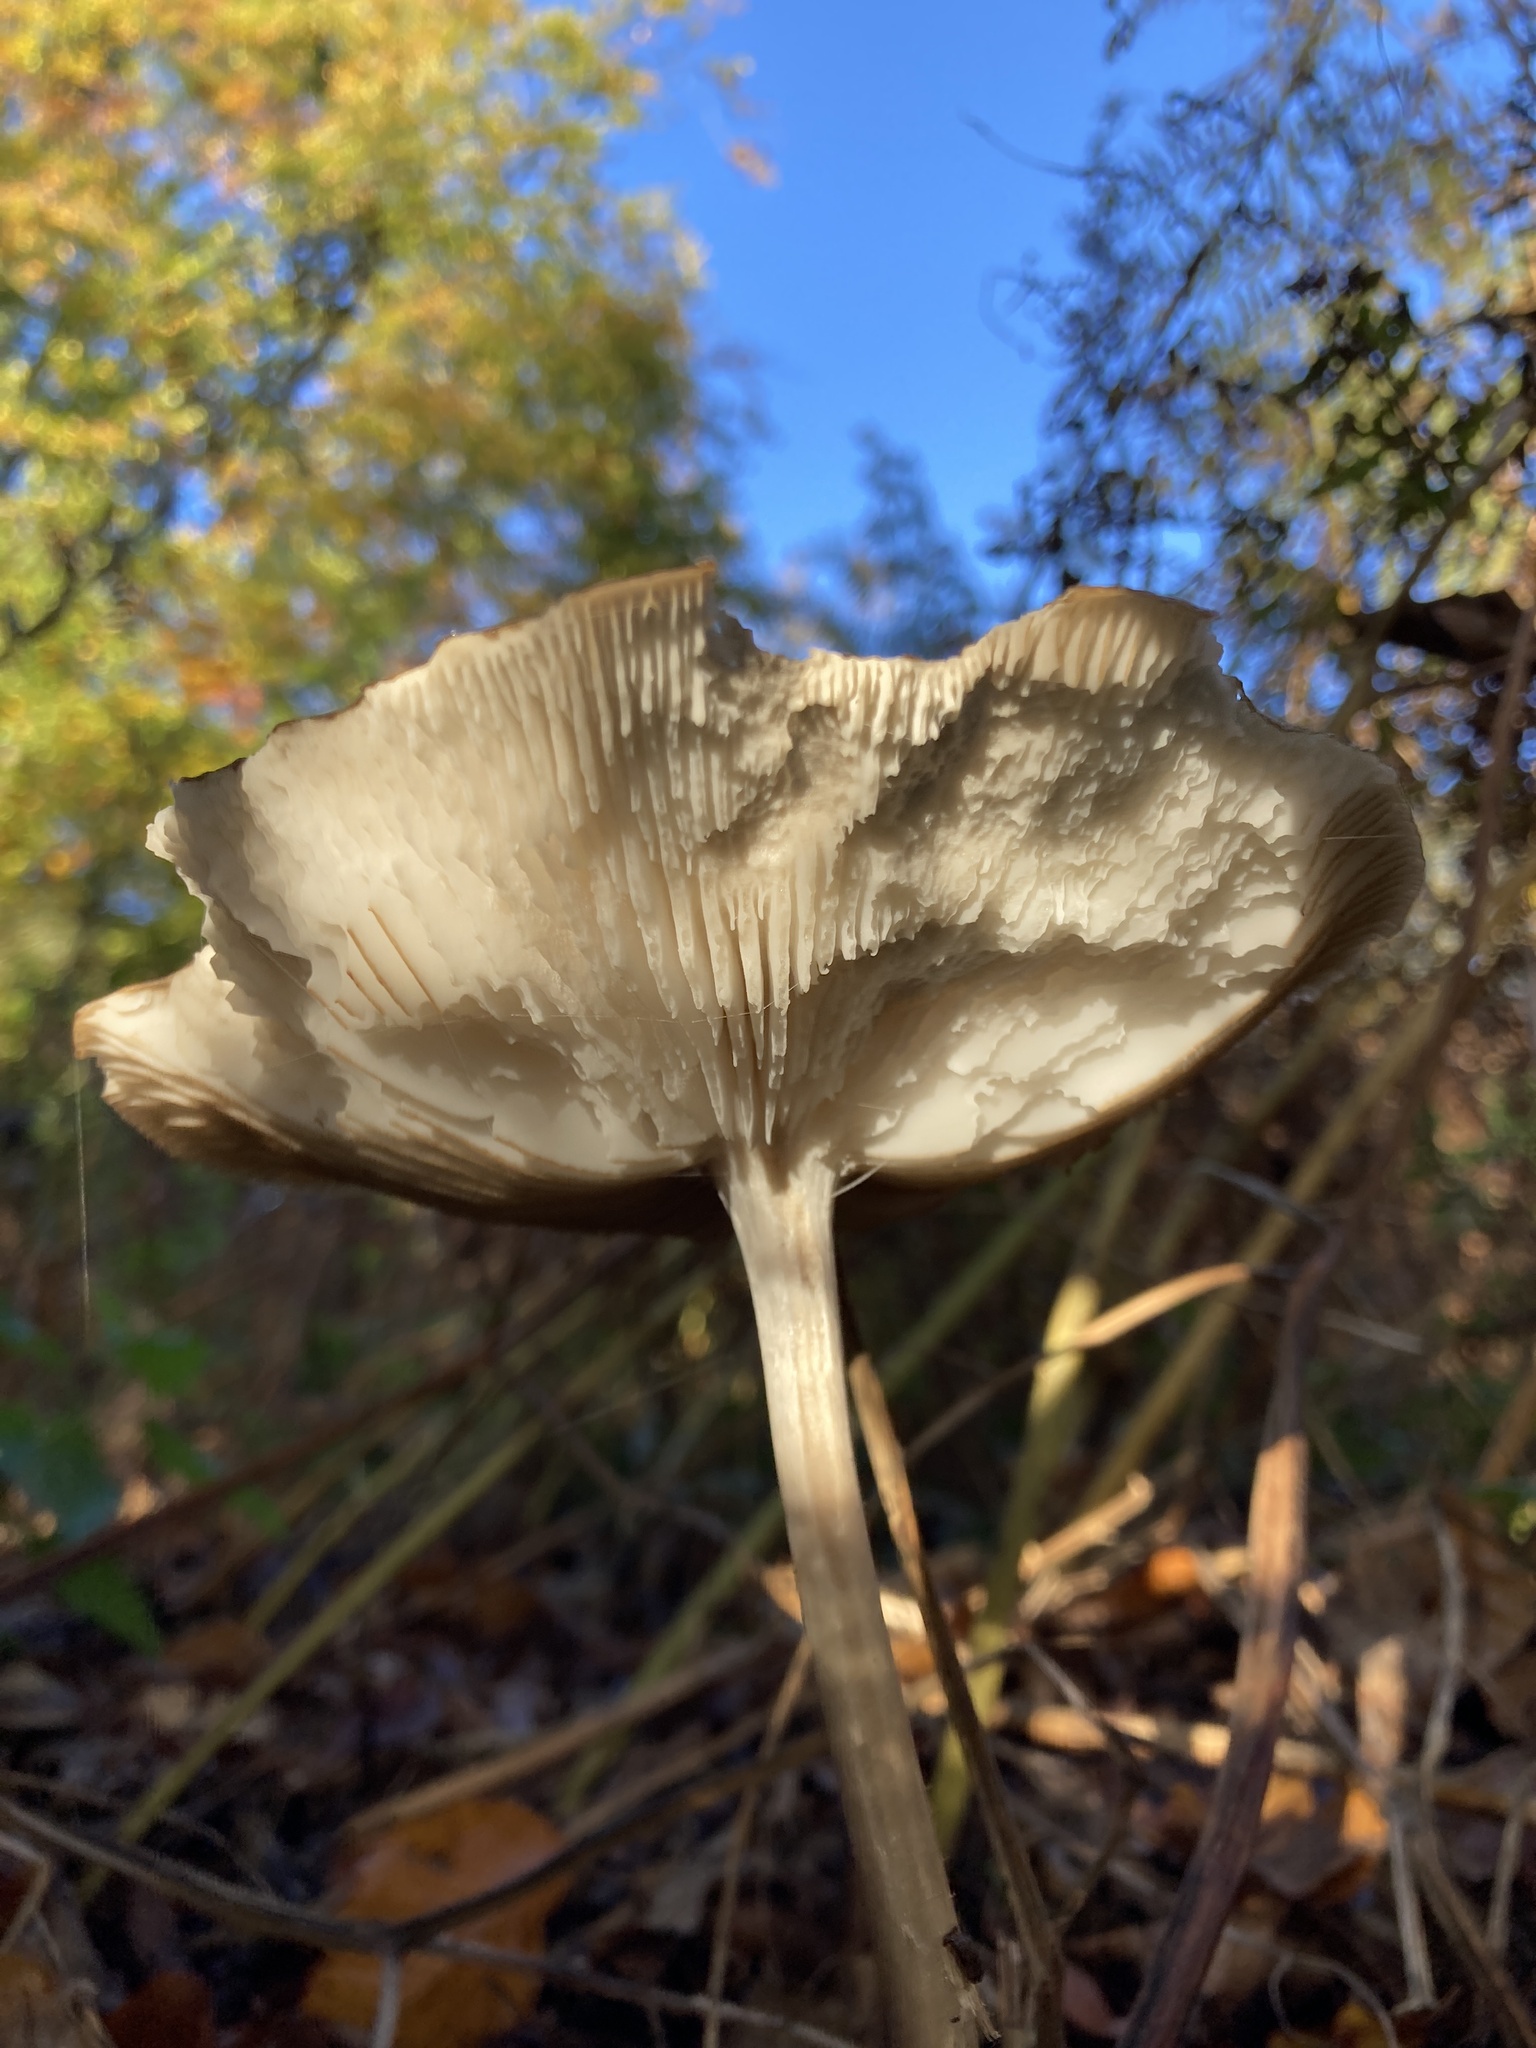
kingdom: Fungi
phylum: Basidiomycota
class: Agaricomycetes
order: Agaricales
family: Physalacriaceae
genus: Hymenopellis
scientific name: Hymenopellis radicata
